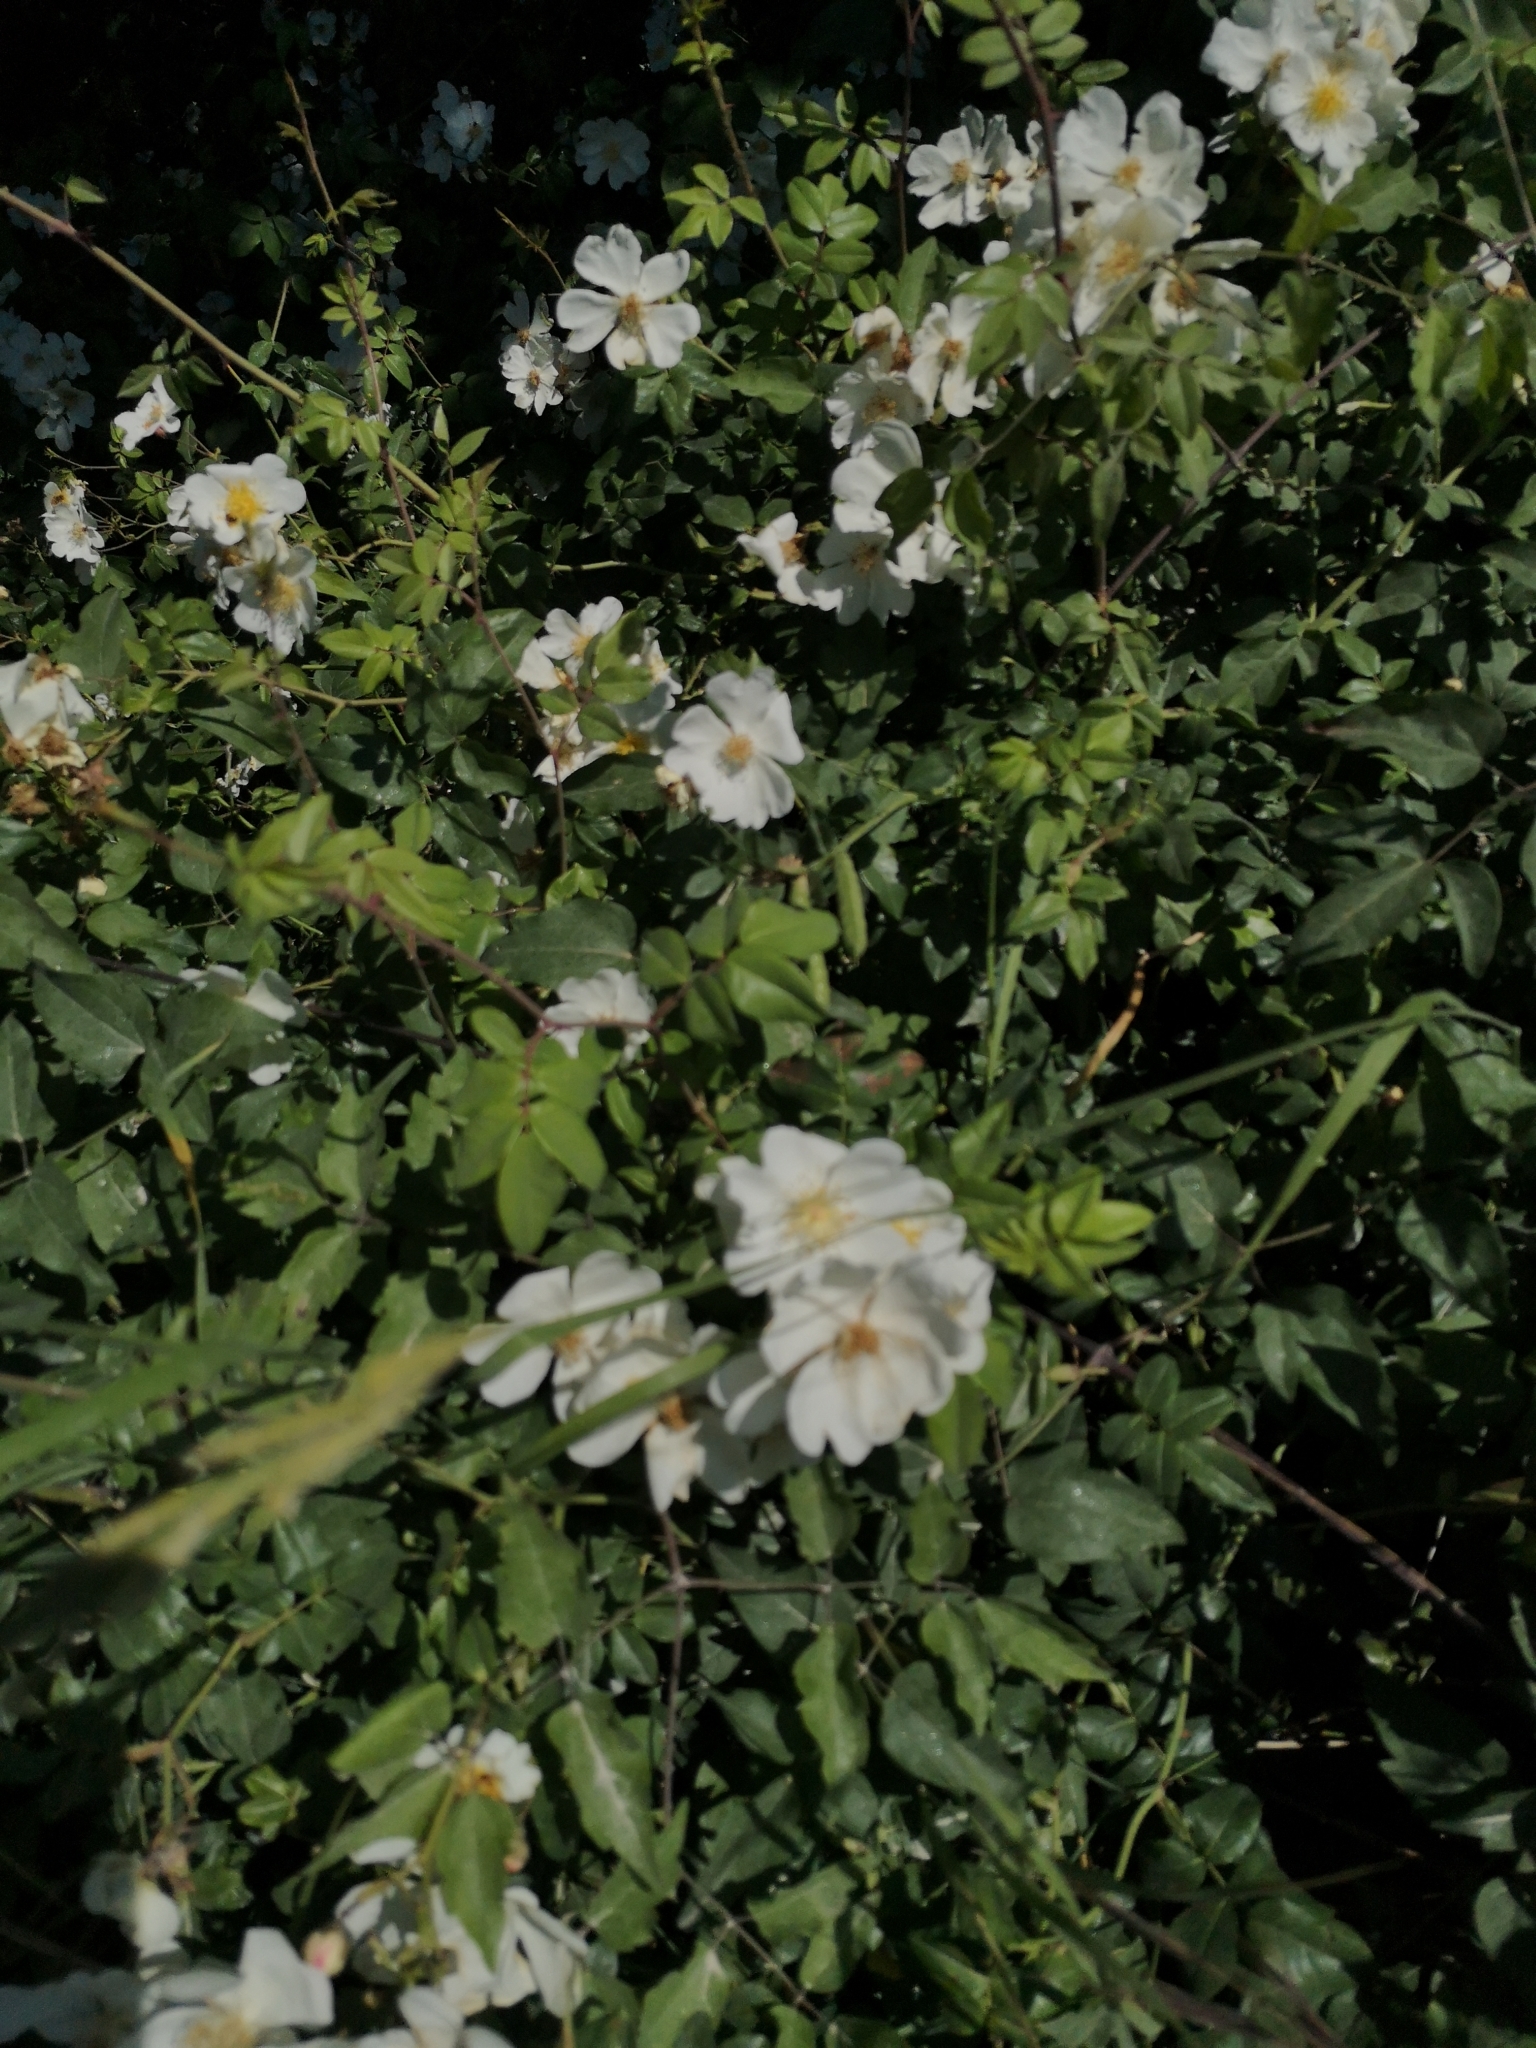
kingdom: Plantae
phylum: Tracheophyta
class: Magnoliopsida
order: Rosales
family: Rosaceae
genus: Rosa
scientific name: Rosa sempervirens
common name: Evergreen rose
